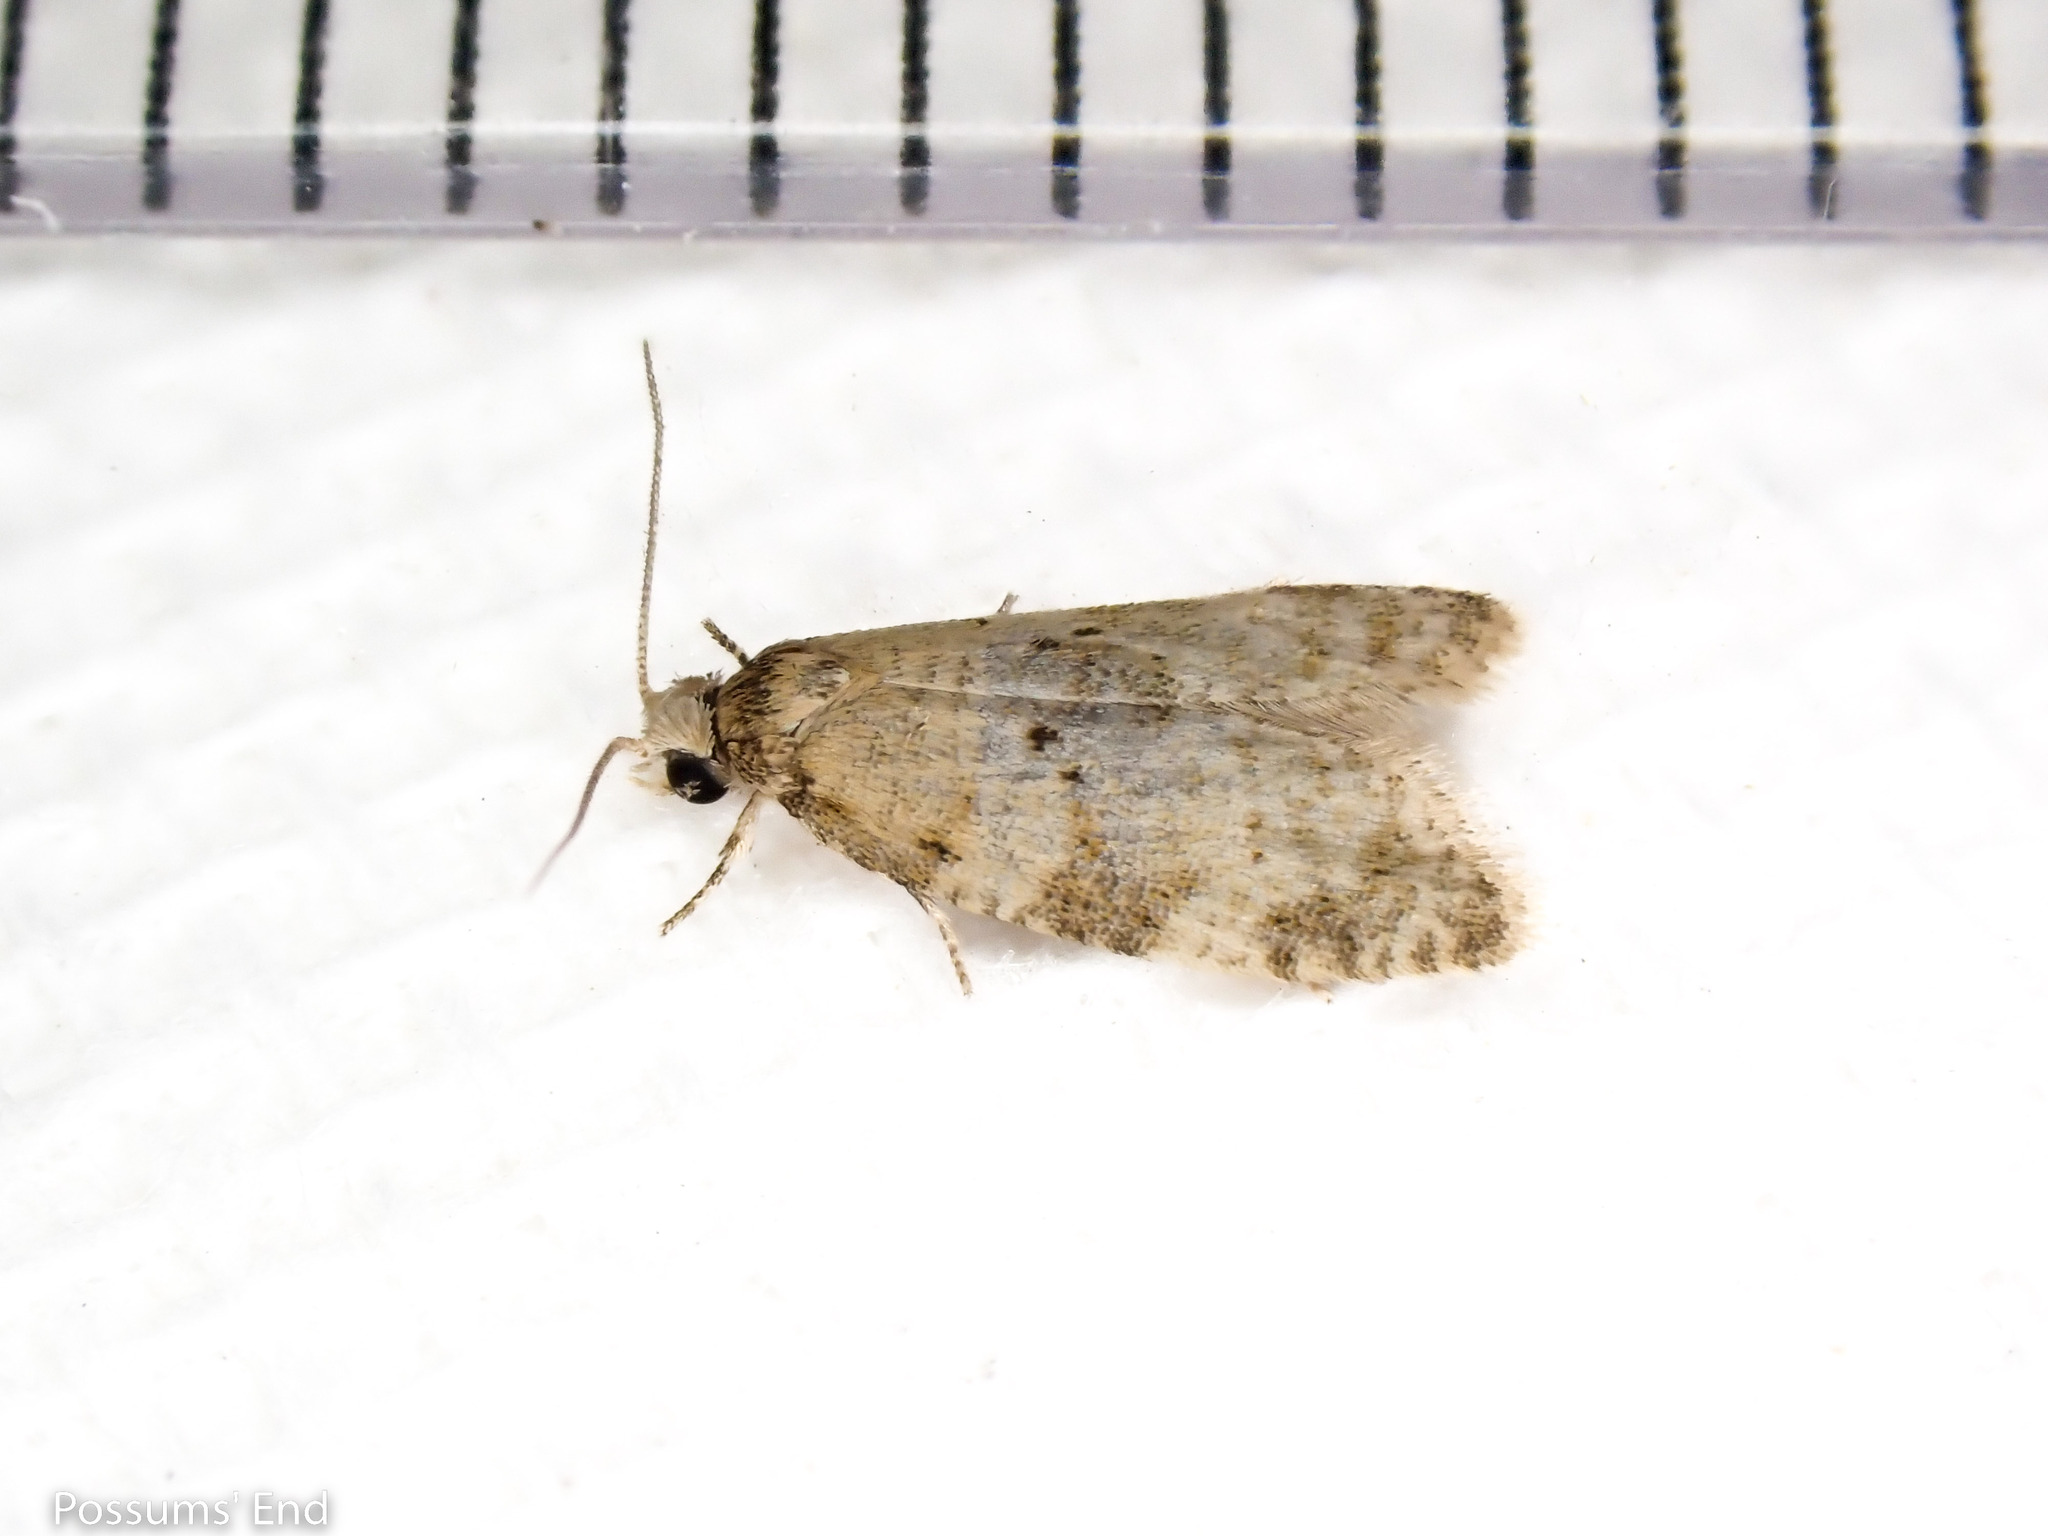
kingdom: Animalia
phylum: Arthropoda
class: Insecta
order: Lepidoptera
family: Tortricidae
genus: Dipterina
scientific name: Dipterina imbriferana
